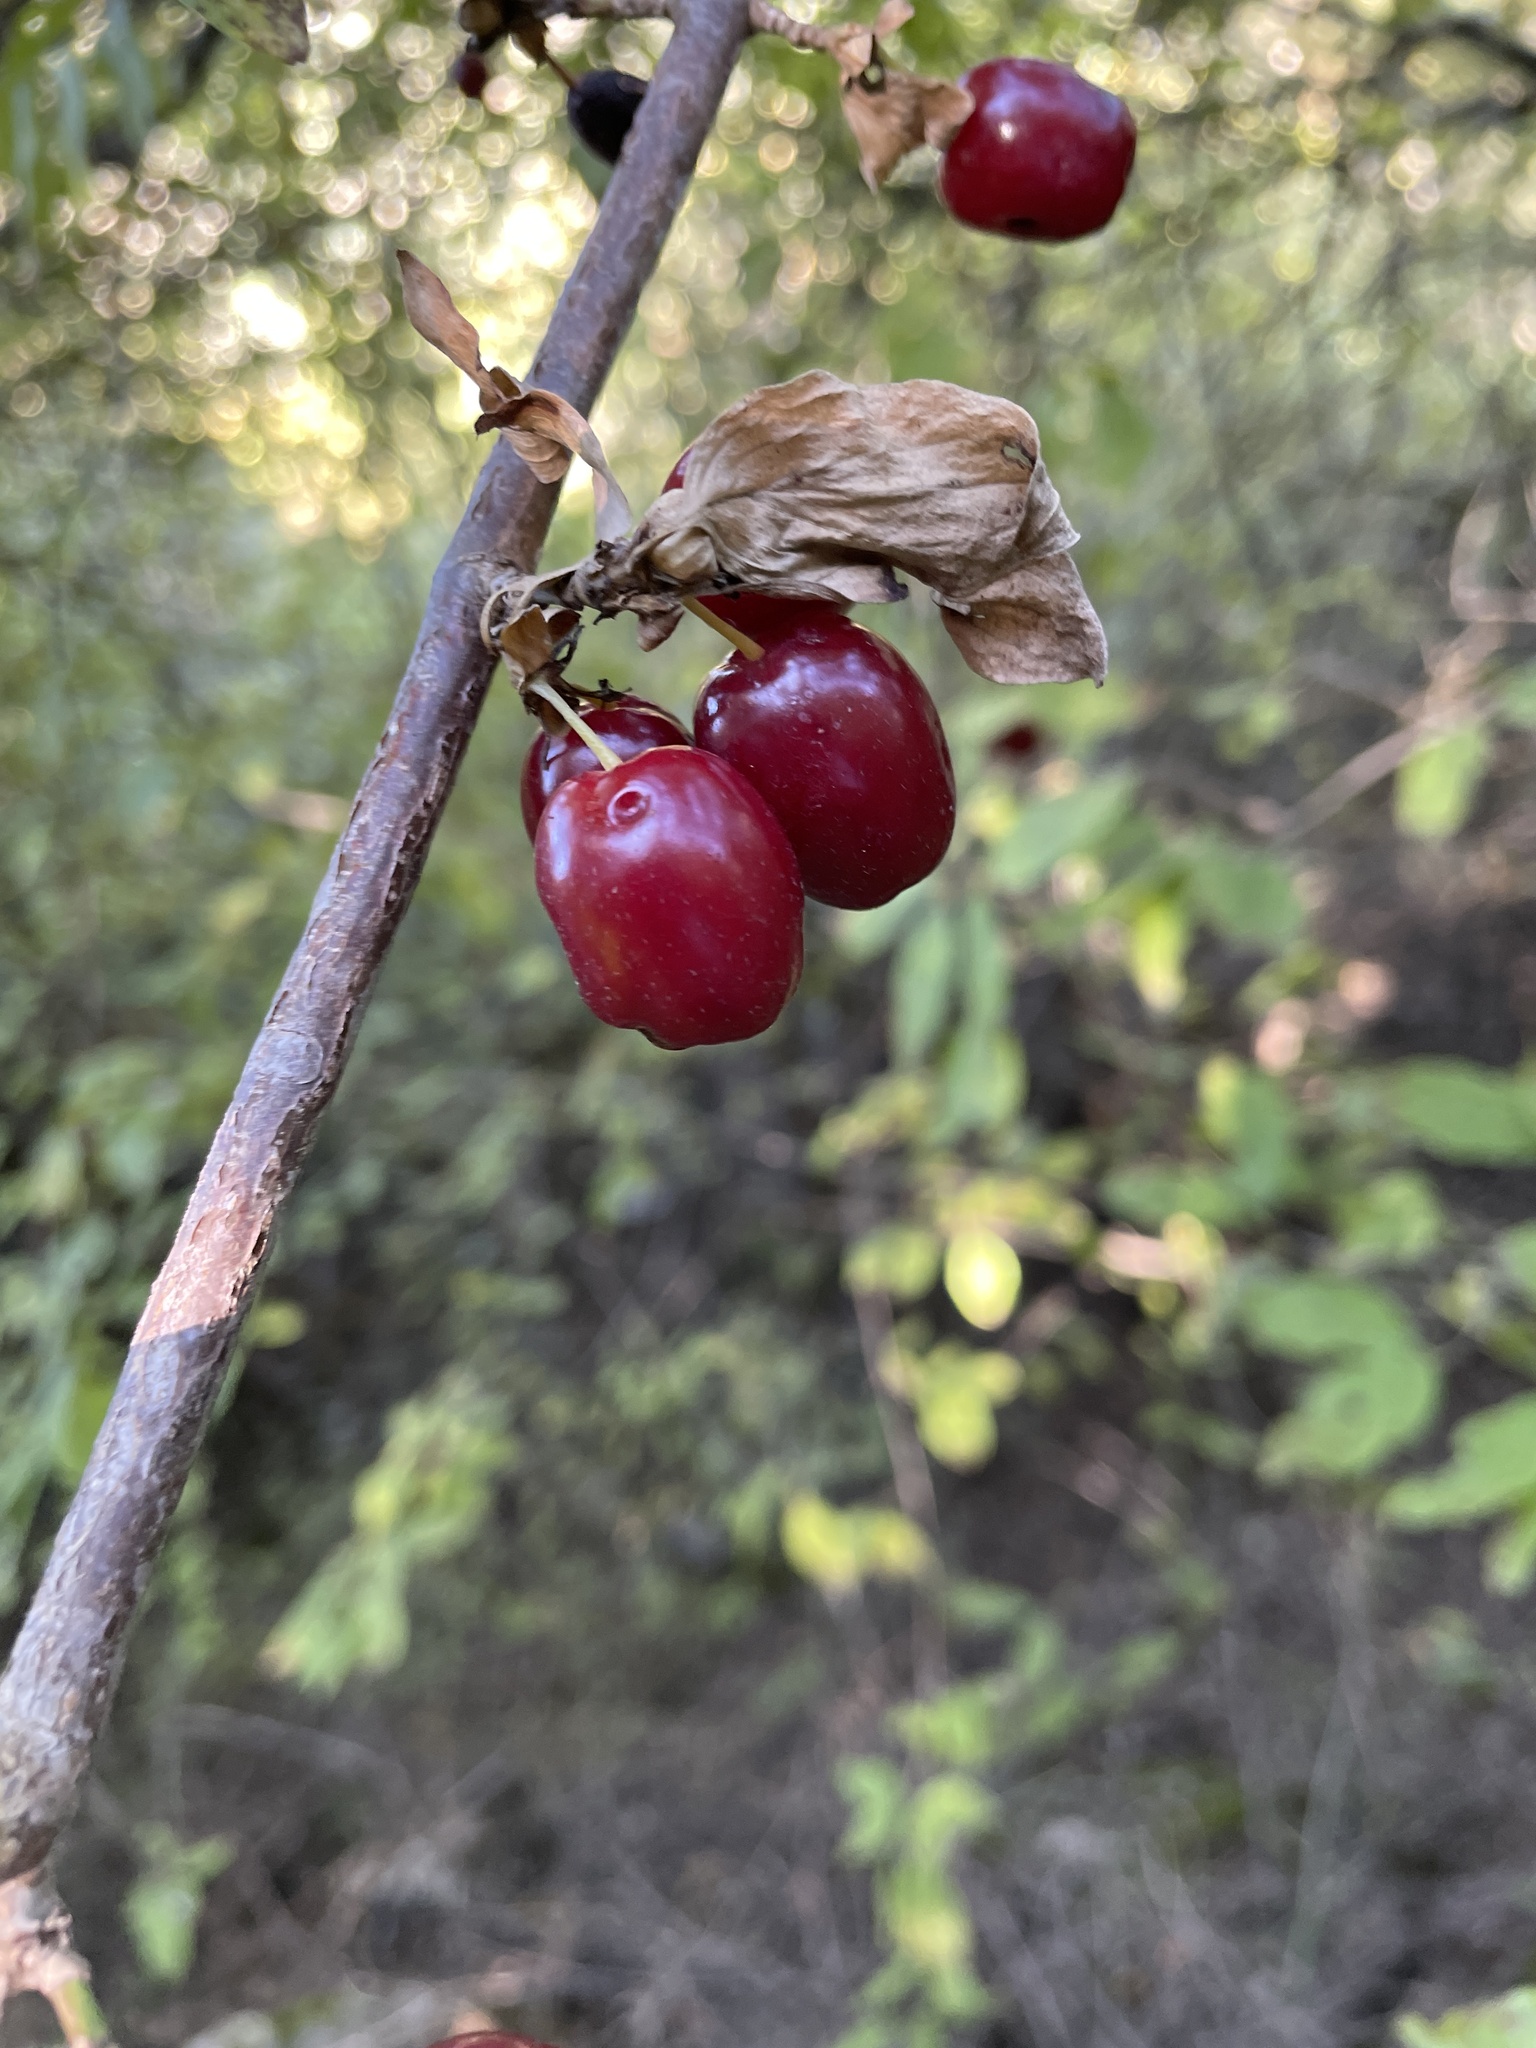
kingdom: Plantae
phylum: Tracheophyta
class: Magnoliopsida
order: Cornales
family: Cornaceae
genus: Cornus
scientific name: Cornus mas
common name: Cornelian-cherry
